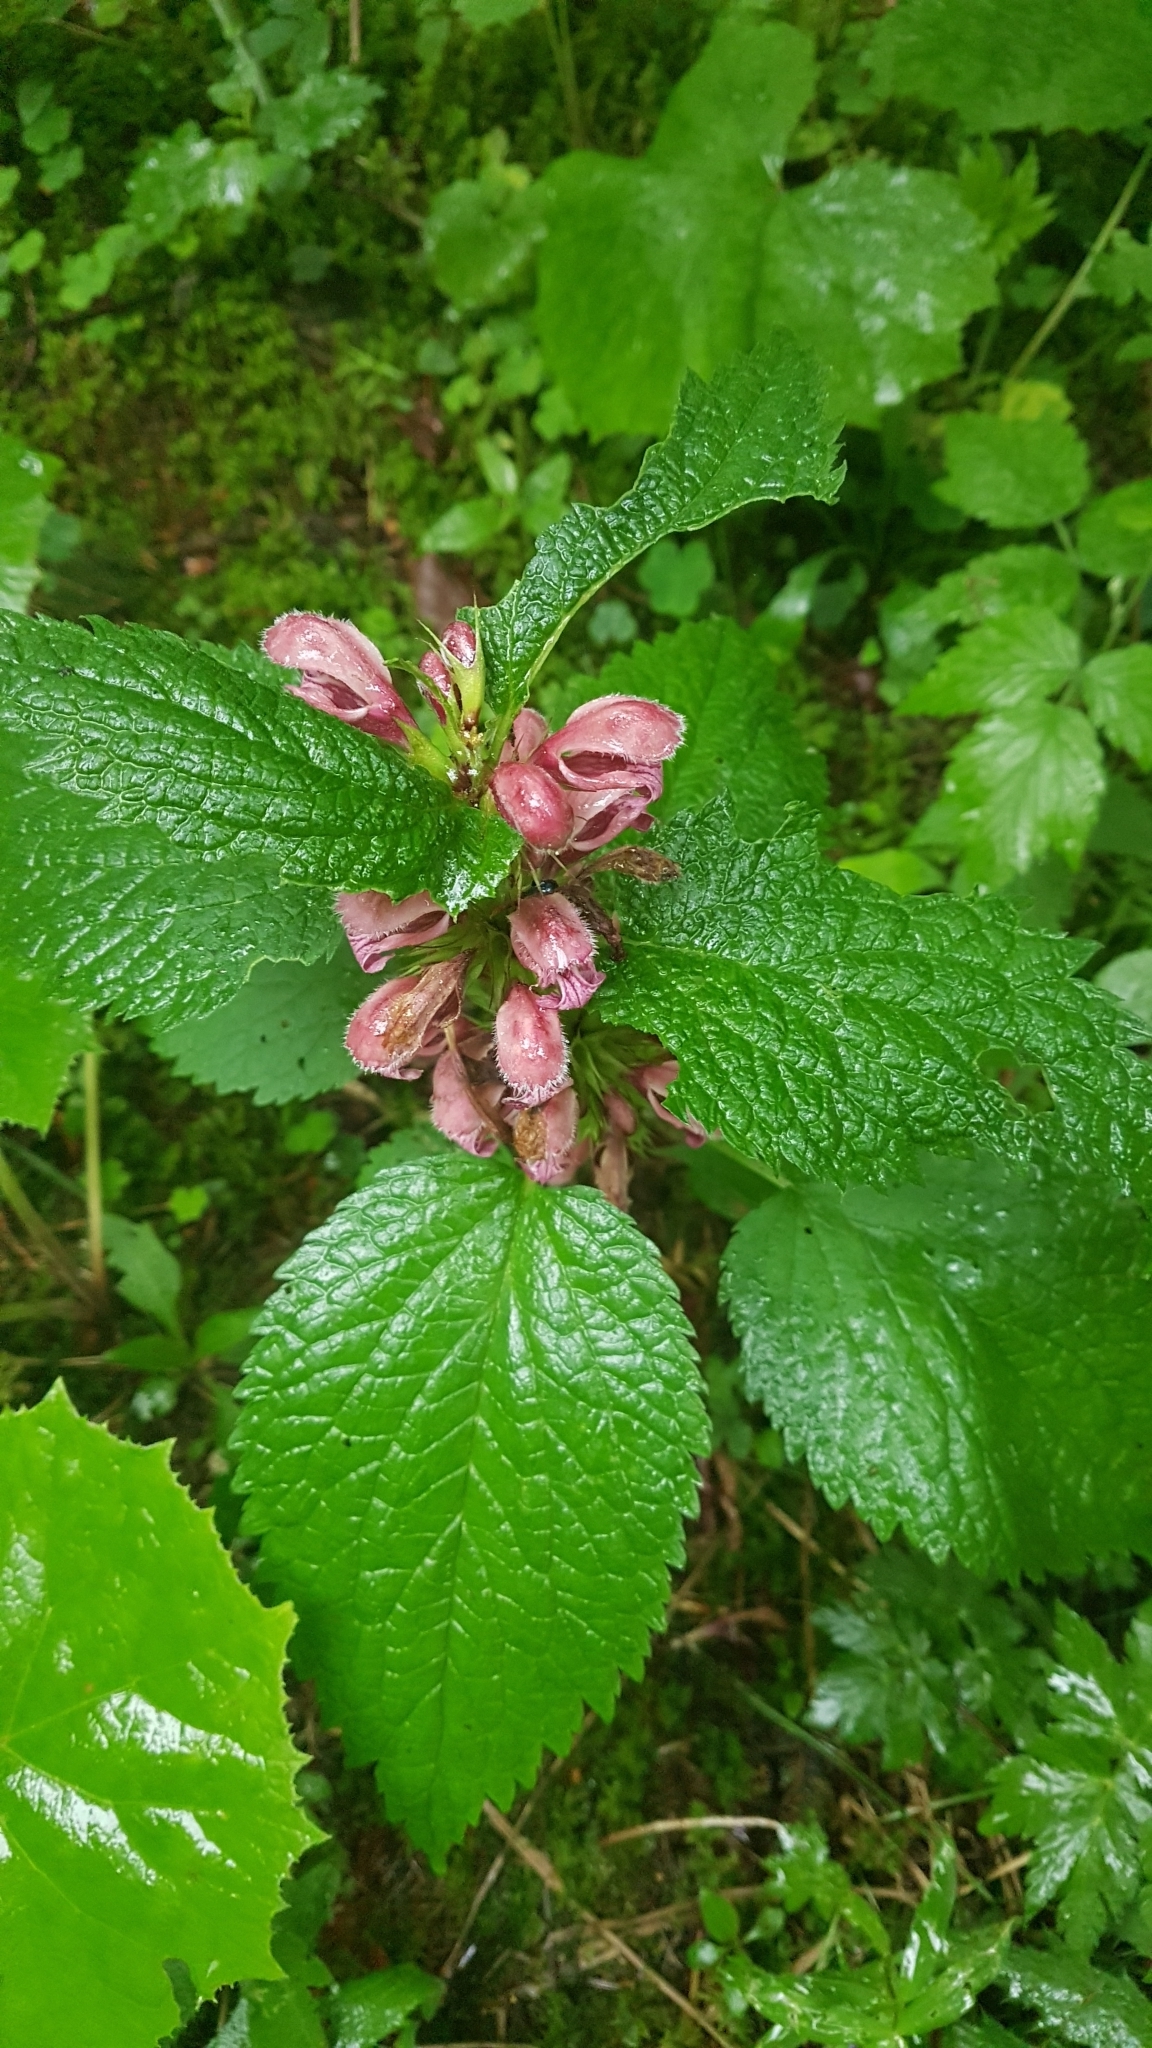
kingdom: Plantae
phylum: Tracheophyta
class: Magnoliopsida
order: Malpighiales
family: Euphorbiaceae
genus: Euphorbia
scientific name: Euphorbia carniolica
